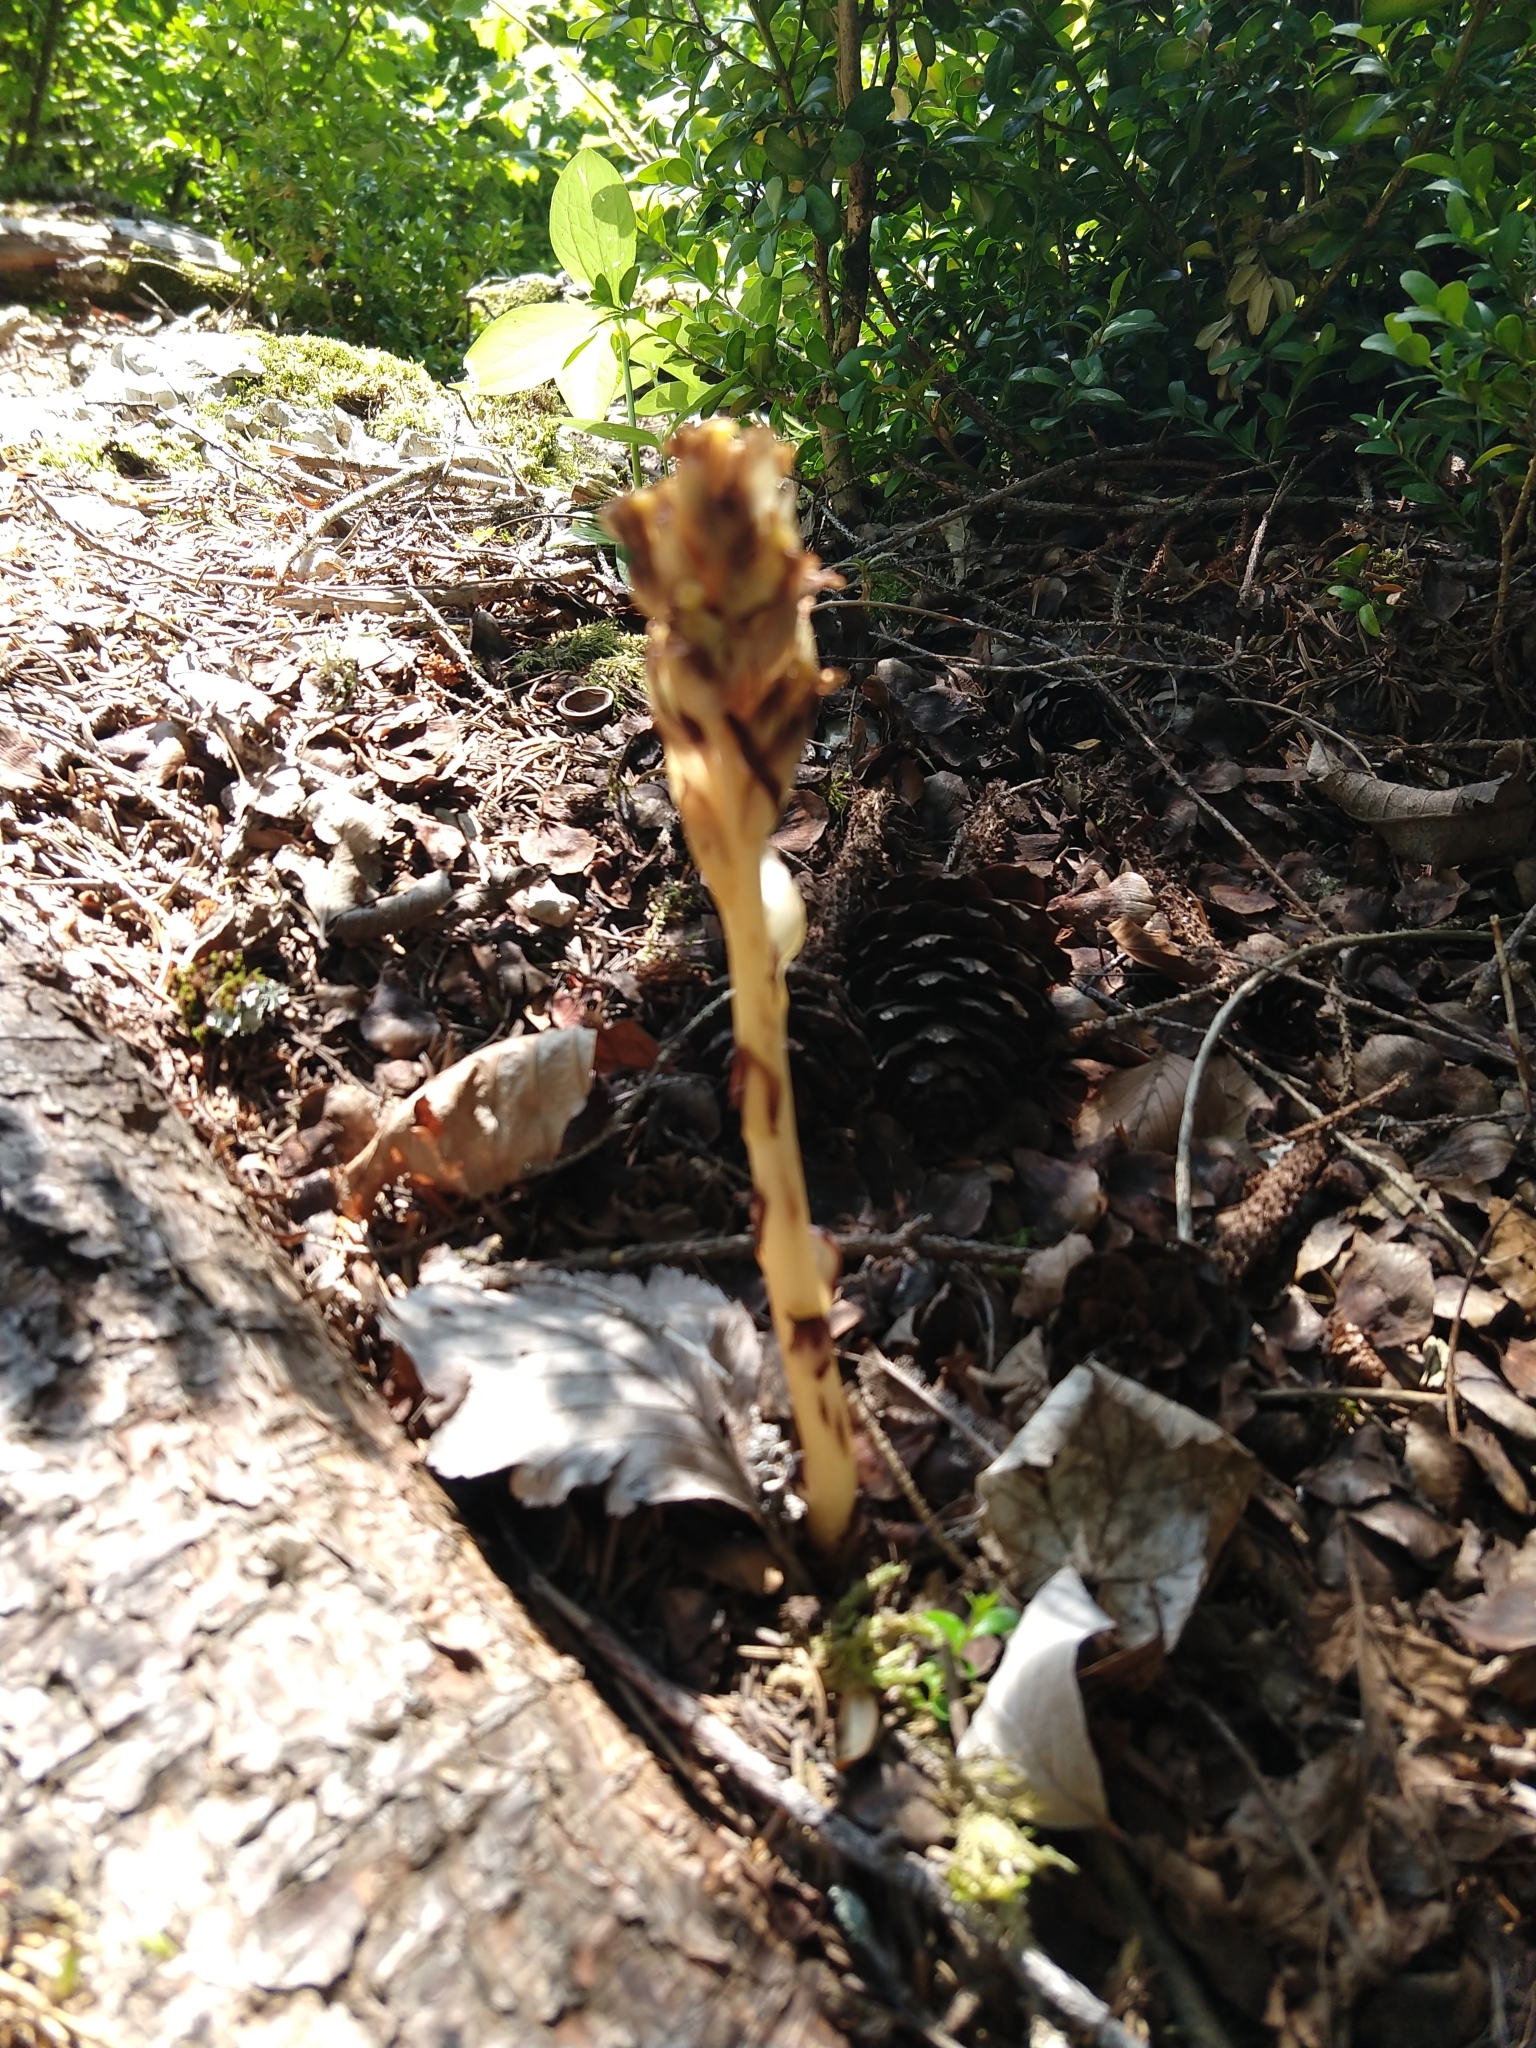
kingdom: Plantae
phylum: Tracheophyta
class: Magnoliopsida
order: Ericales
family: Ericaceae
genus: Hypopitys
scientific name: Hypopitys monotropa
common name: Yellow bird's-nest
